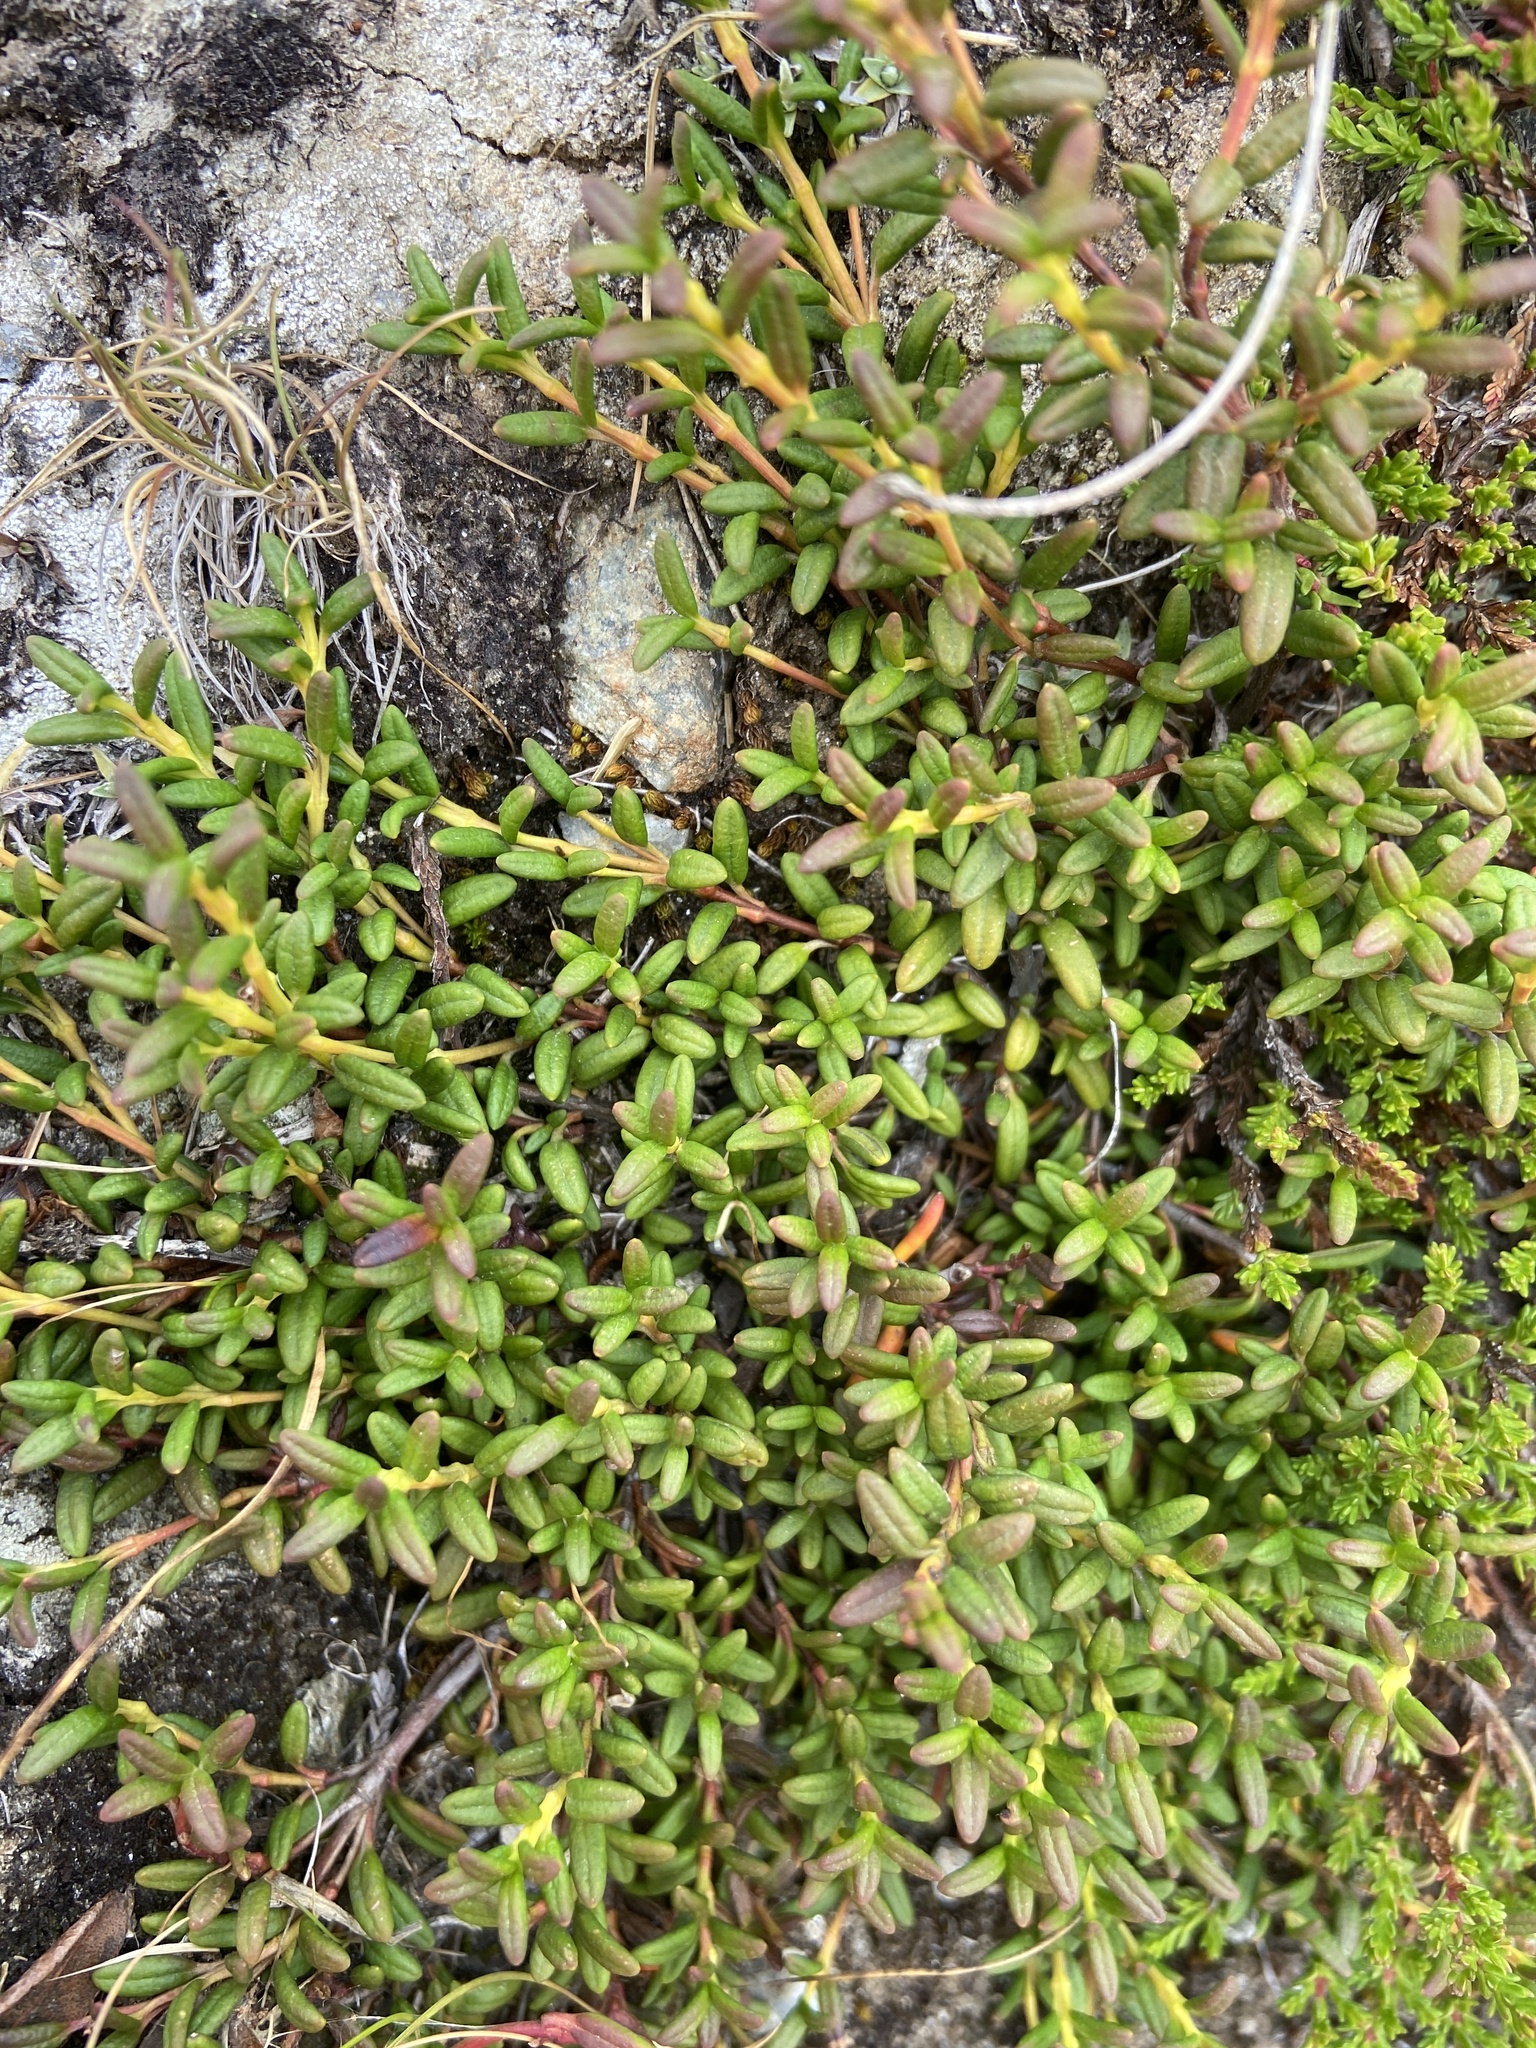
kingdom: Plantae
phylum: Tracheophyta
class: Magnoliopsida
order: Ericales
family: Ericaceae
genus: Kalmia
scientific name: Kalmia procumbens
